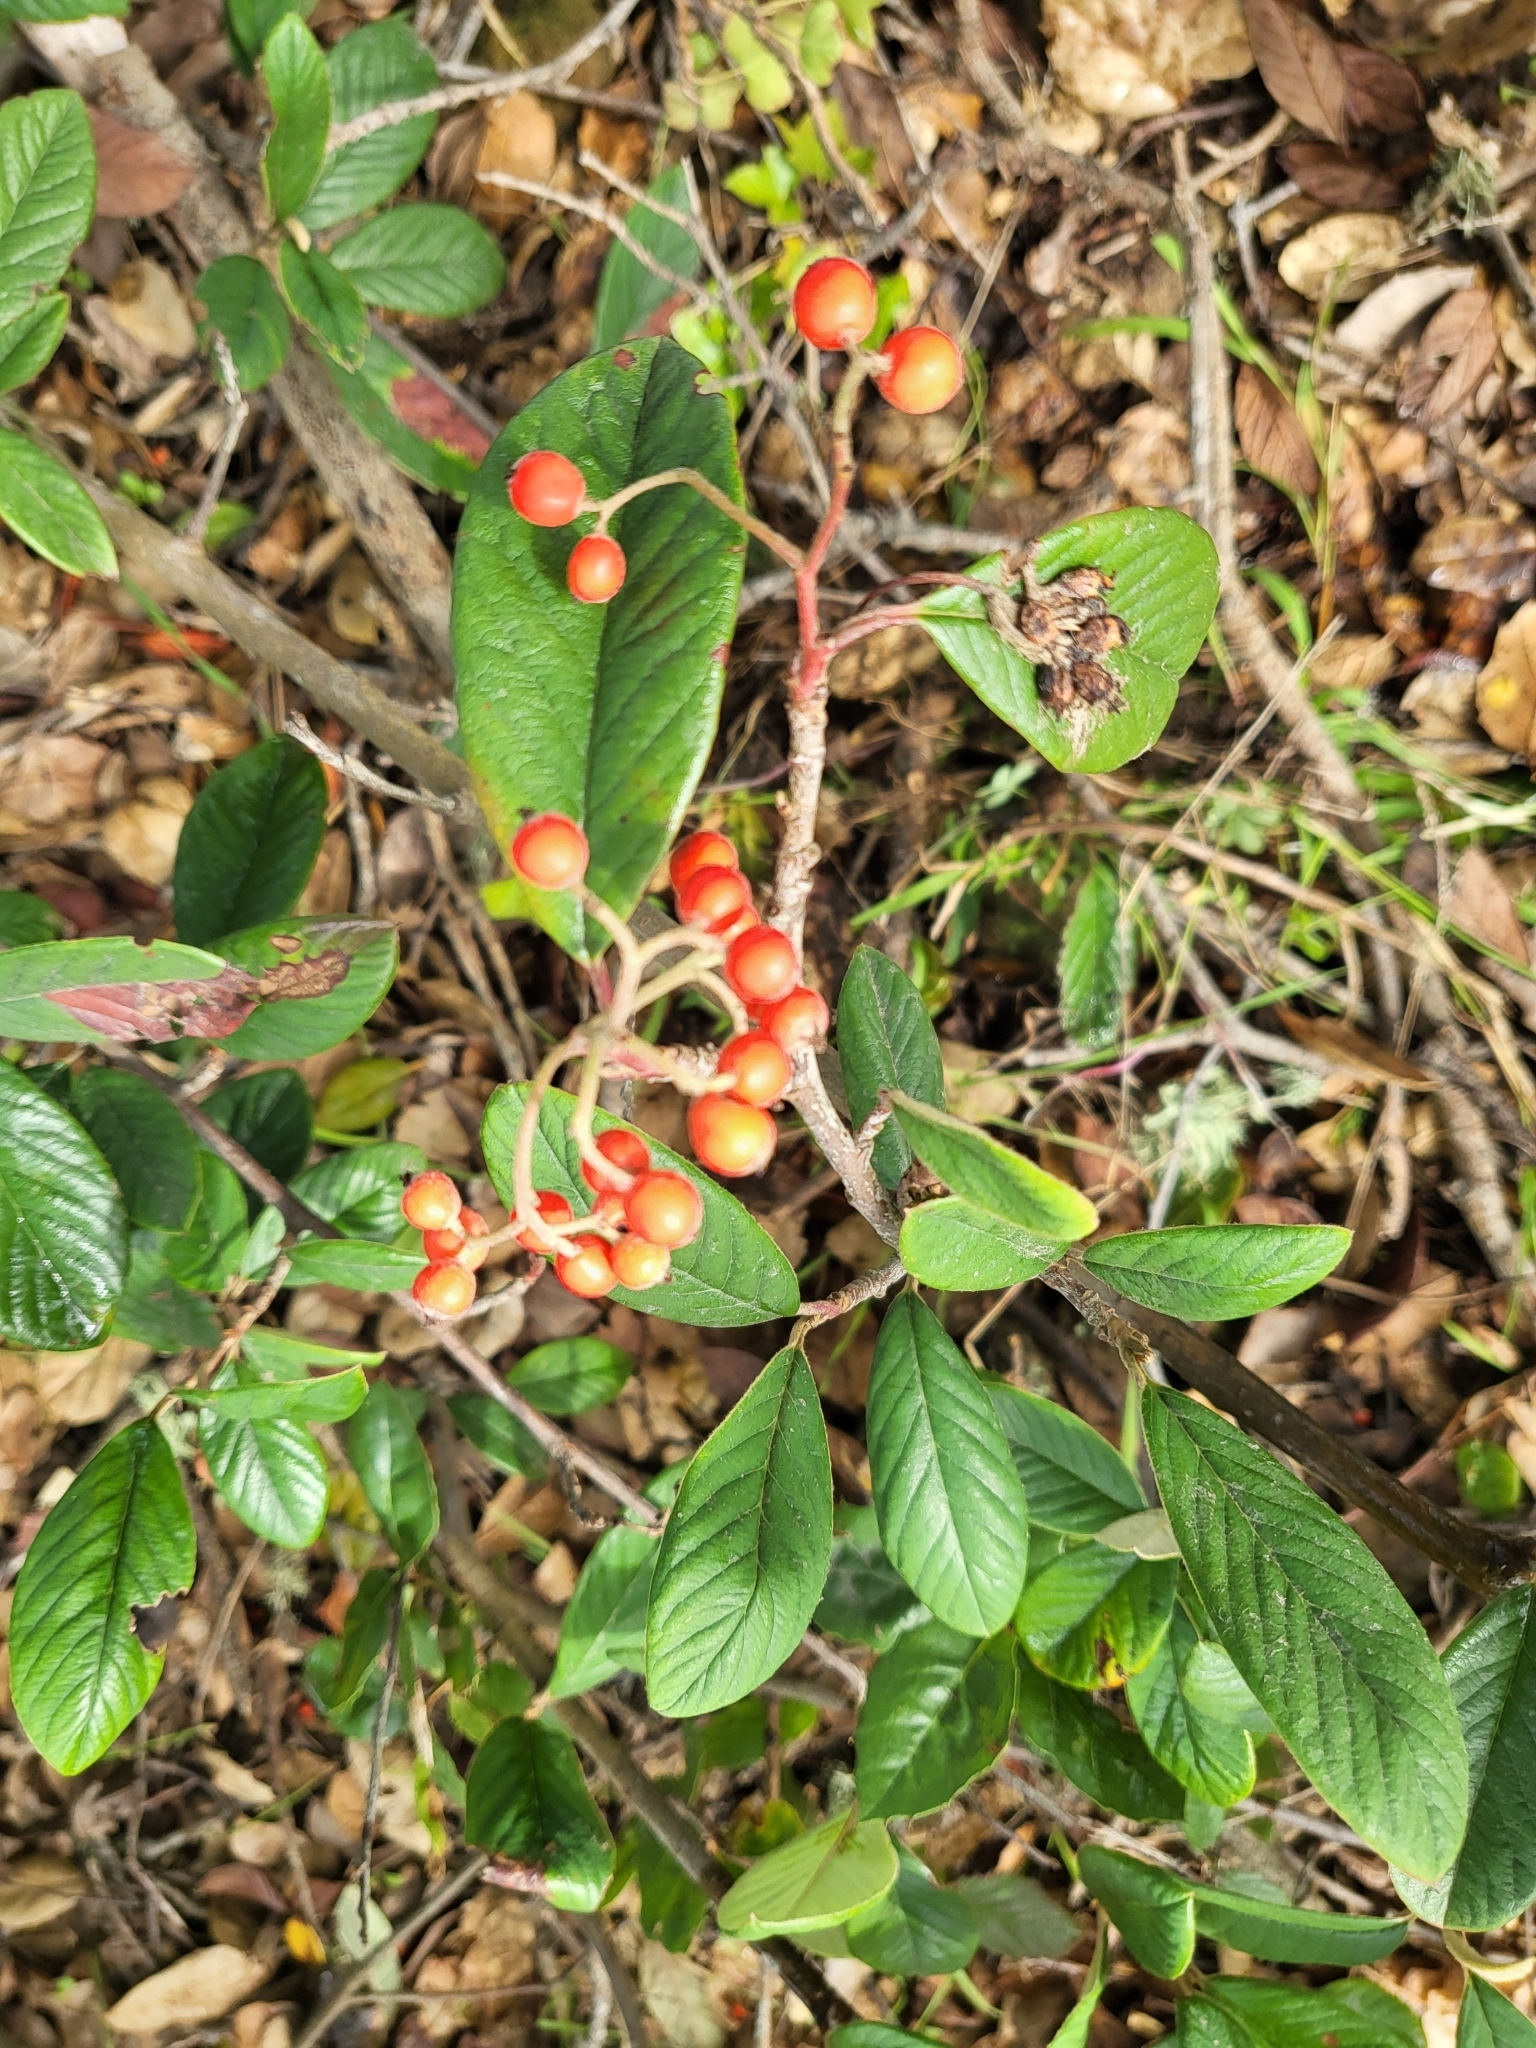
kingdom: Plantae
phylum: Tracheophyta
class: Magnoliopsida
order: Rosales
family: Rosaceae
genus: Cotoneaster
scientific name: Cotoneaster coriaceus
